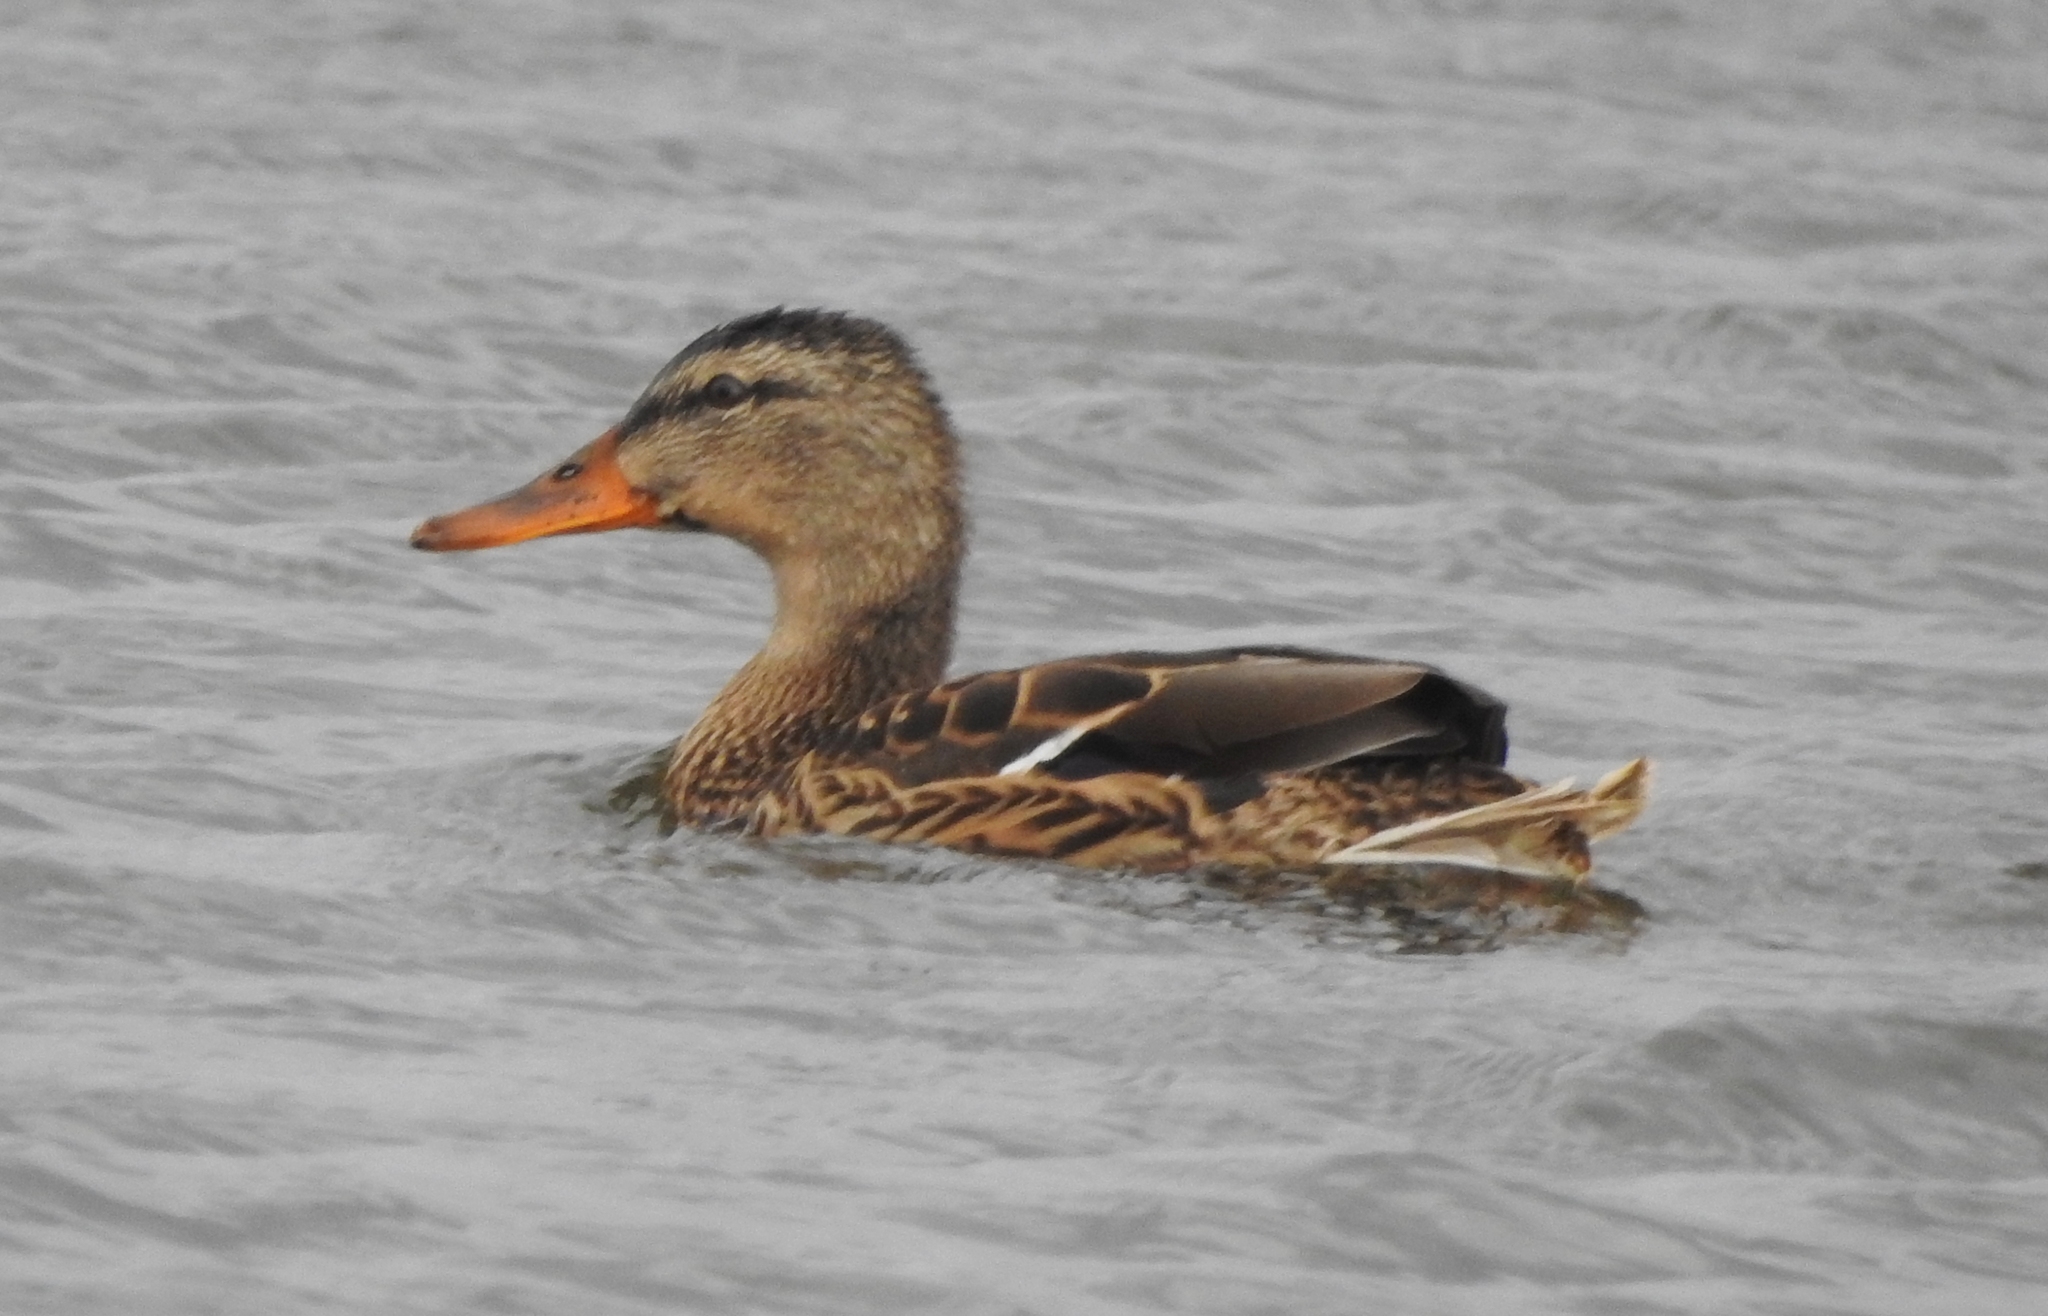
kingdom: Animalia
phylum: Chordata
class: Aves
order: Anseriformes
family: Anatidae
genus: Anas
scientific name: Anas platyrhynchos
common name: Mallard
